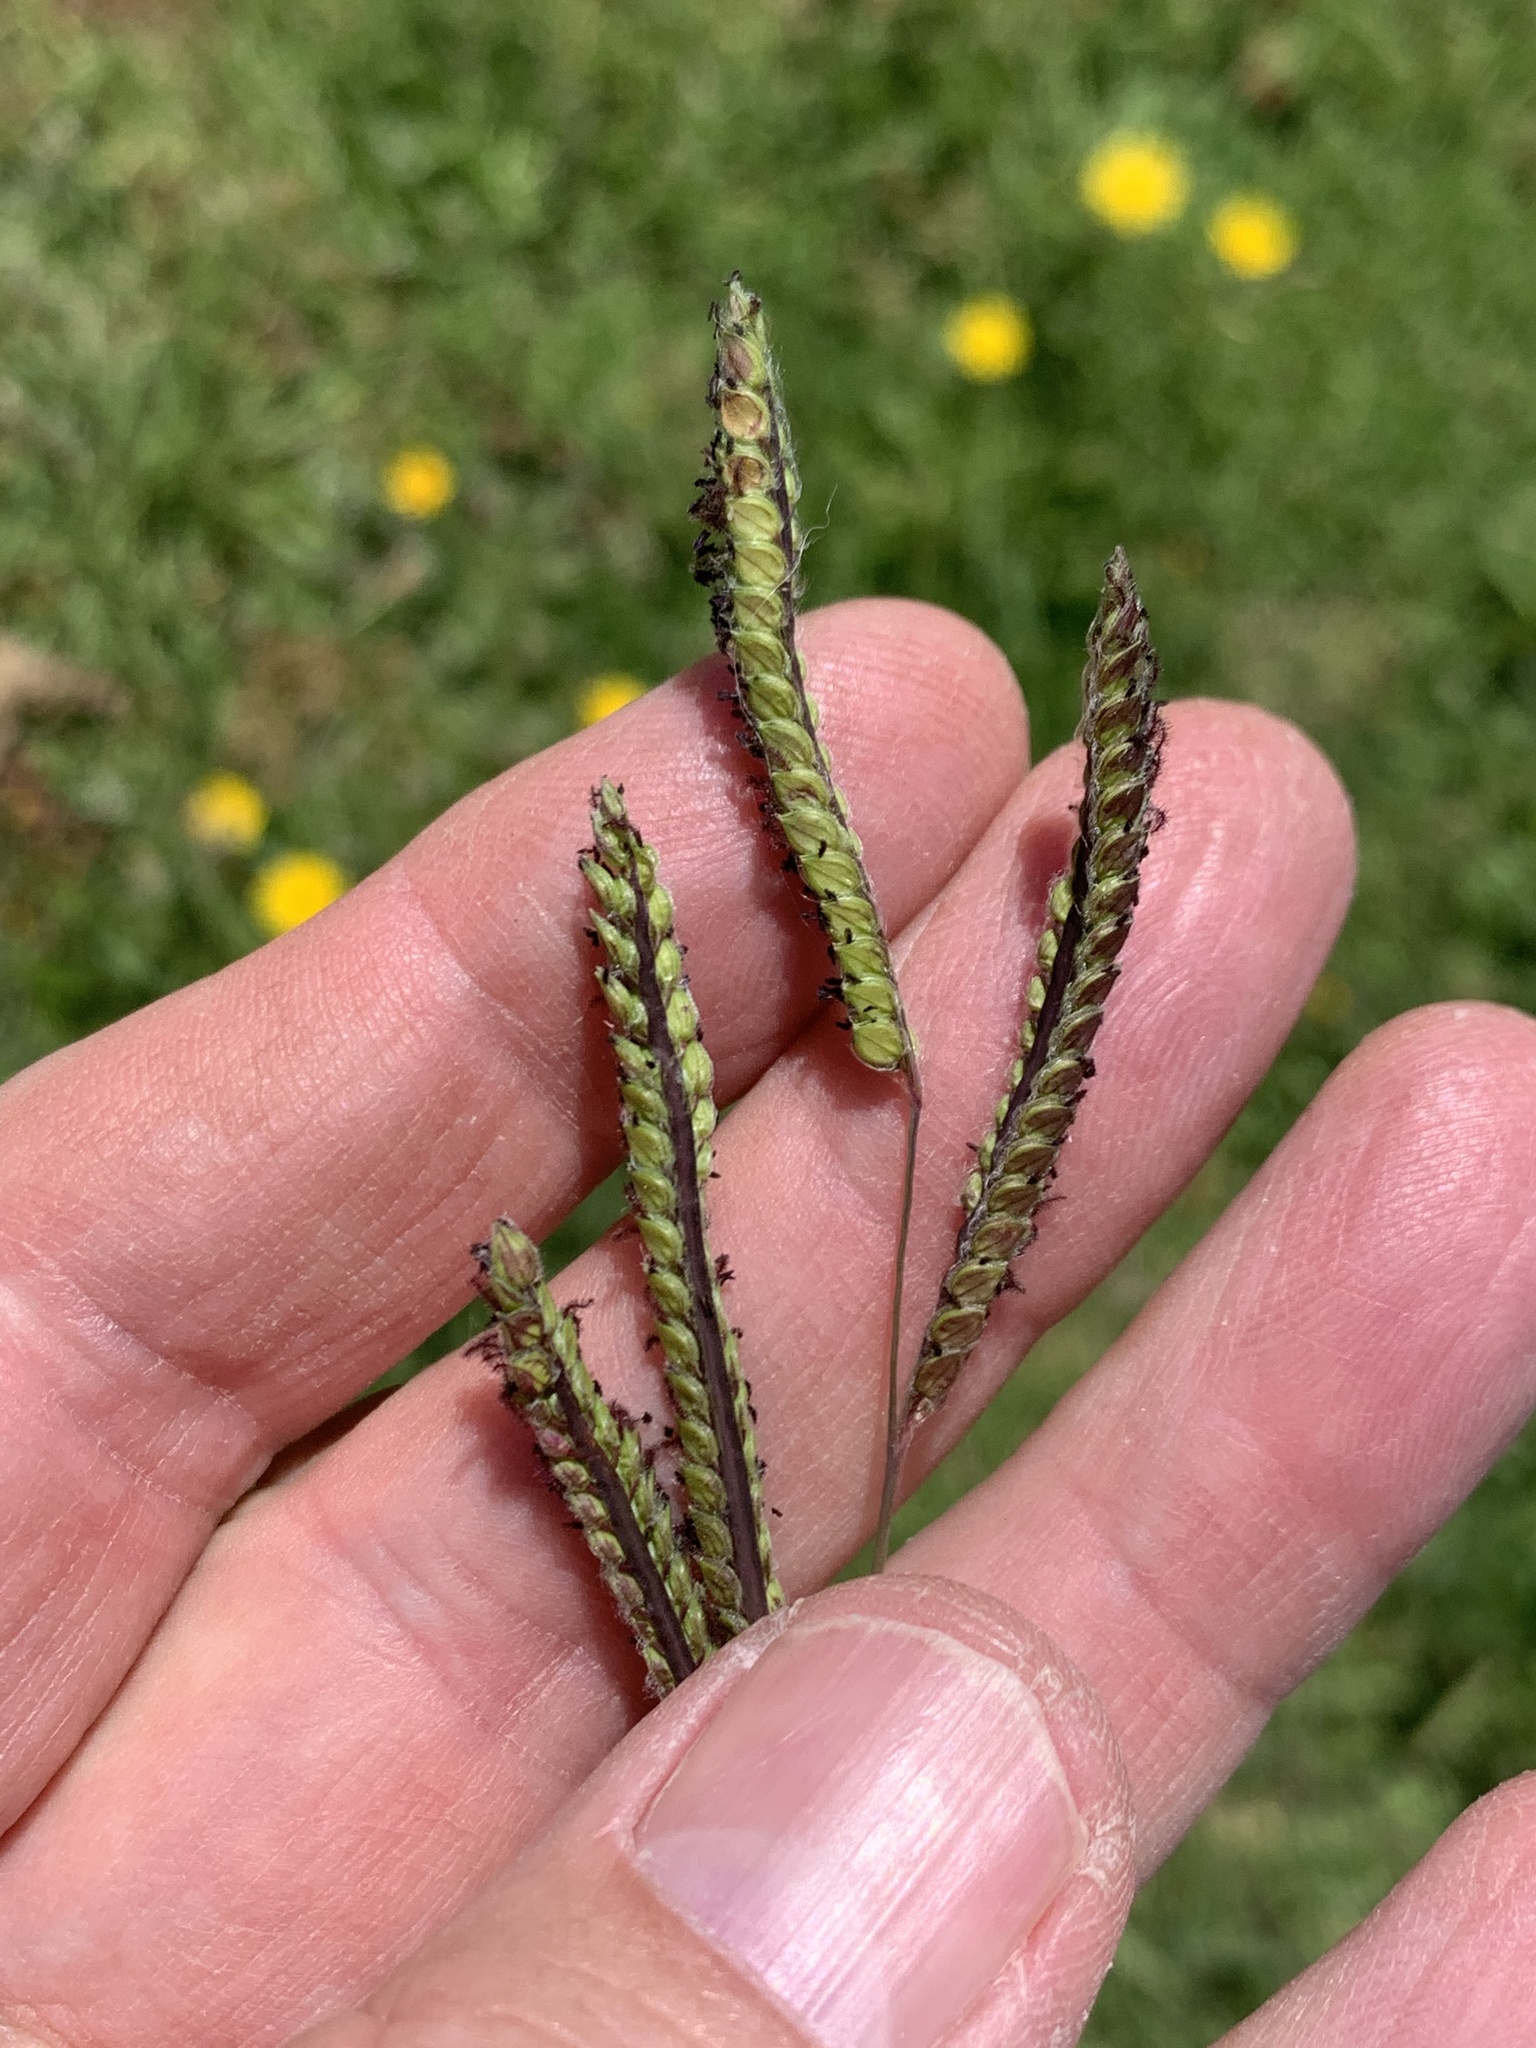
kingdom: Plantae
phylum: Tracheophyta
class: Liliopsida
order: Poales
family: Poaceae
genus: Paspalum
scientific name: Paspalum dilatatum
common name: Dallisgrass
